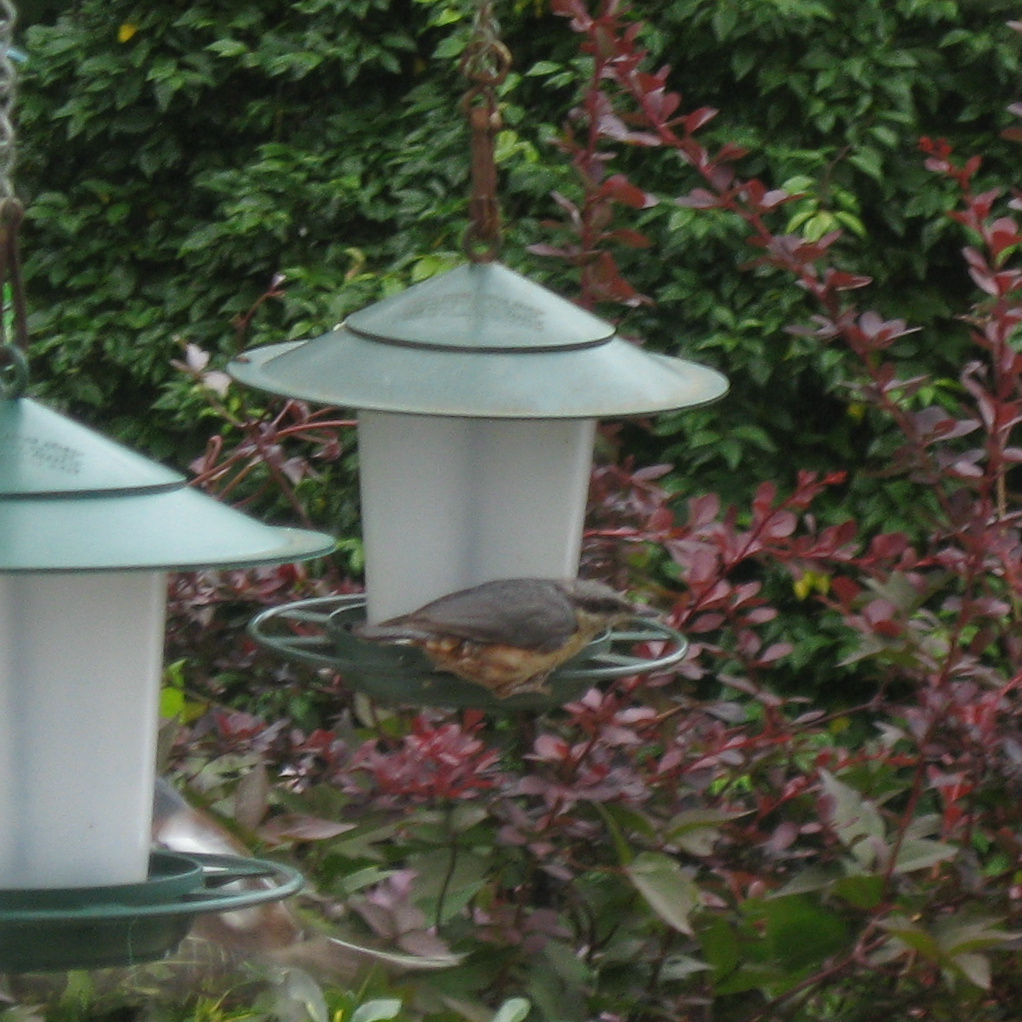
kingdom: Animalia
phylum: Chordata
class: Aves
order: Passeriformes
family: Sittidae
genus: Sitta
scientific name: Sitta europaea
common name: Eurasian nuthatch
